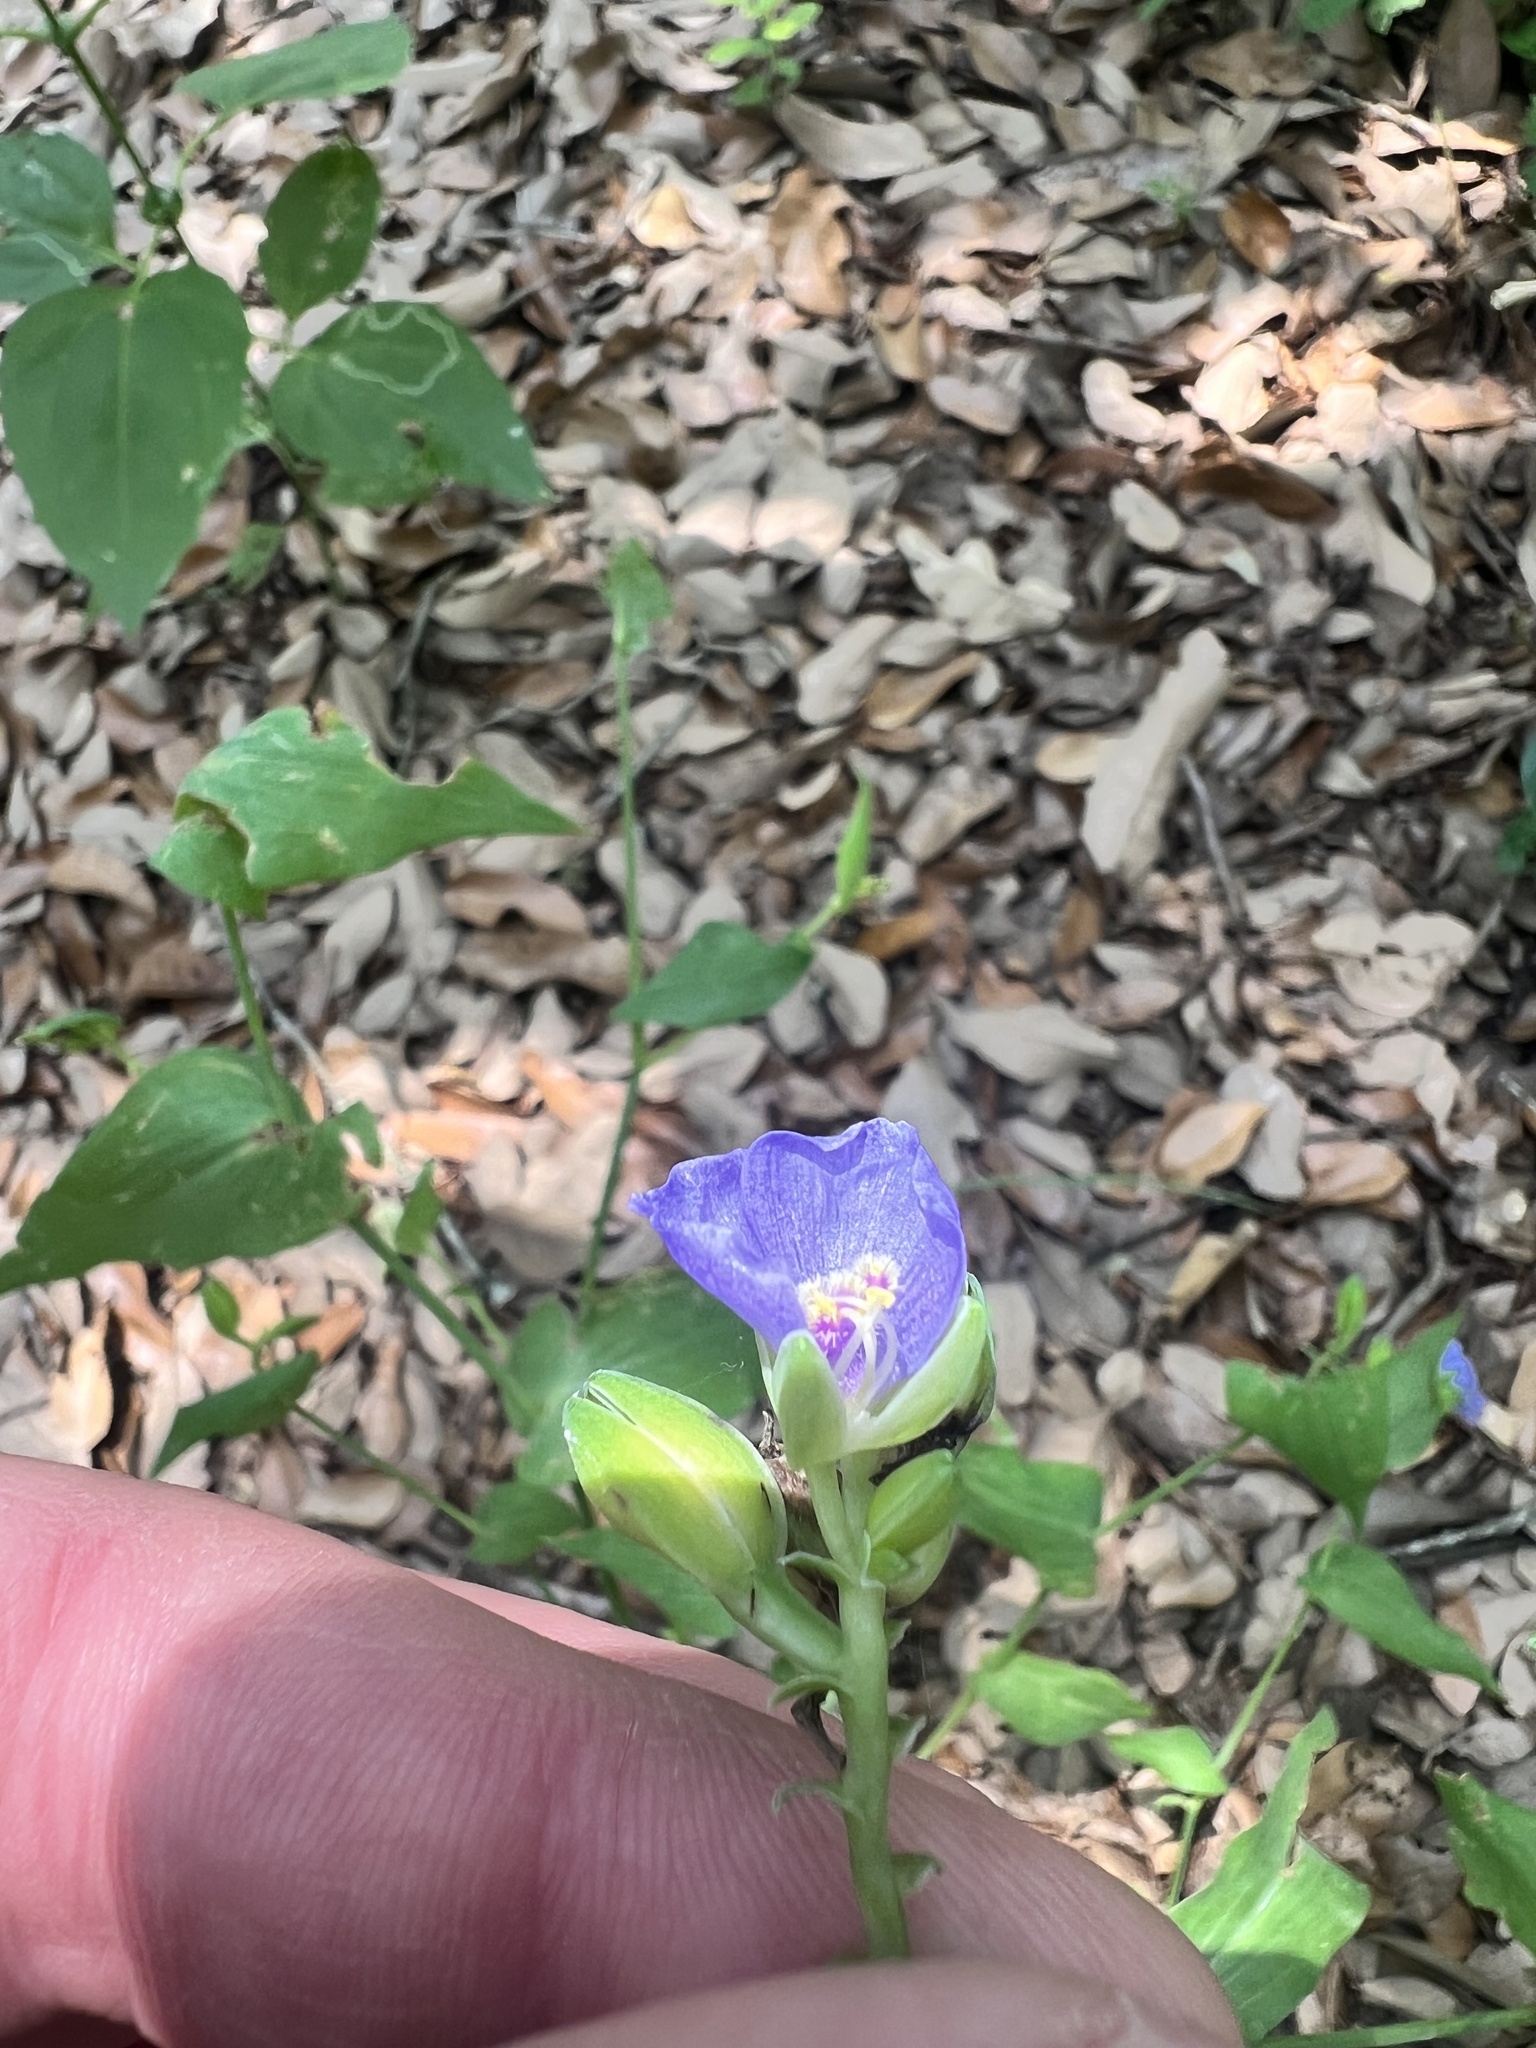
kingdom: Plantae
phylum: Tracheophyta
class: Liliopsida
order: Commelinales
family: Commelinaceae
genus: Tinantia
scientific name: Tinantia anomala
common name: False dayflower
